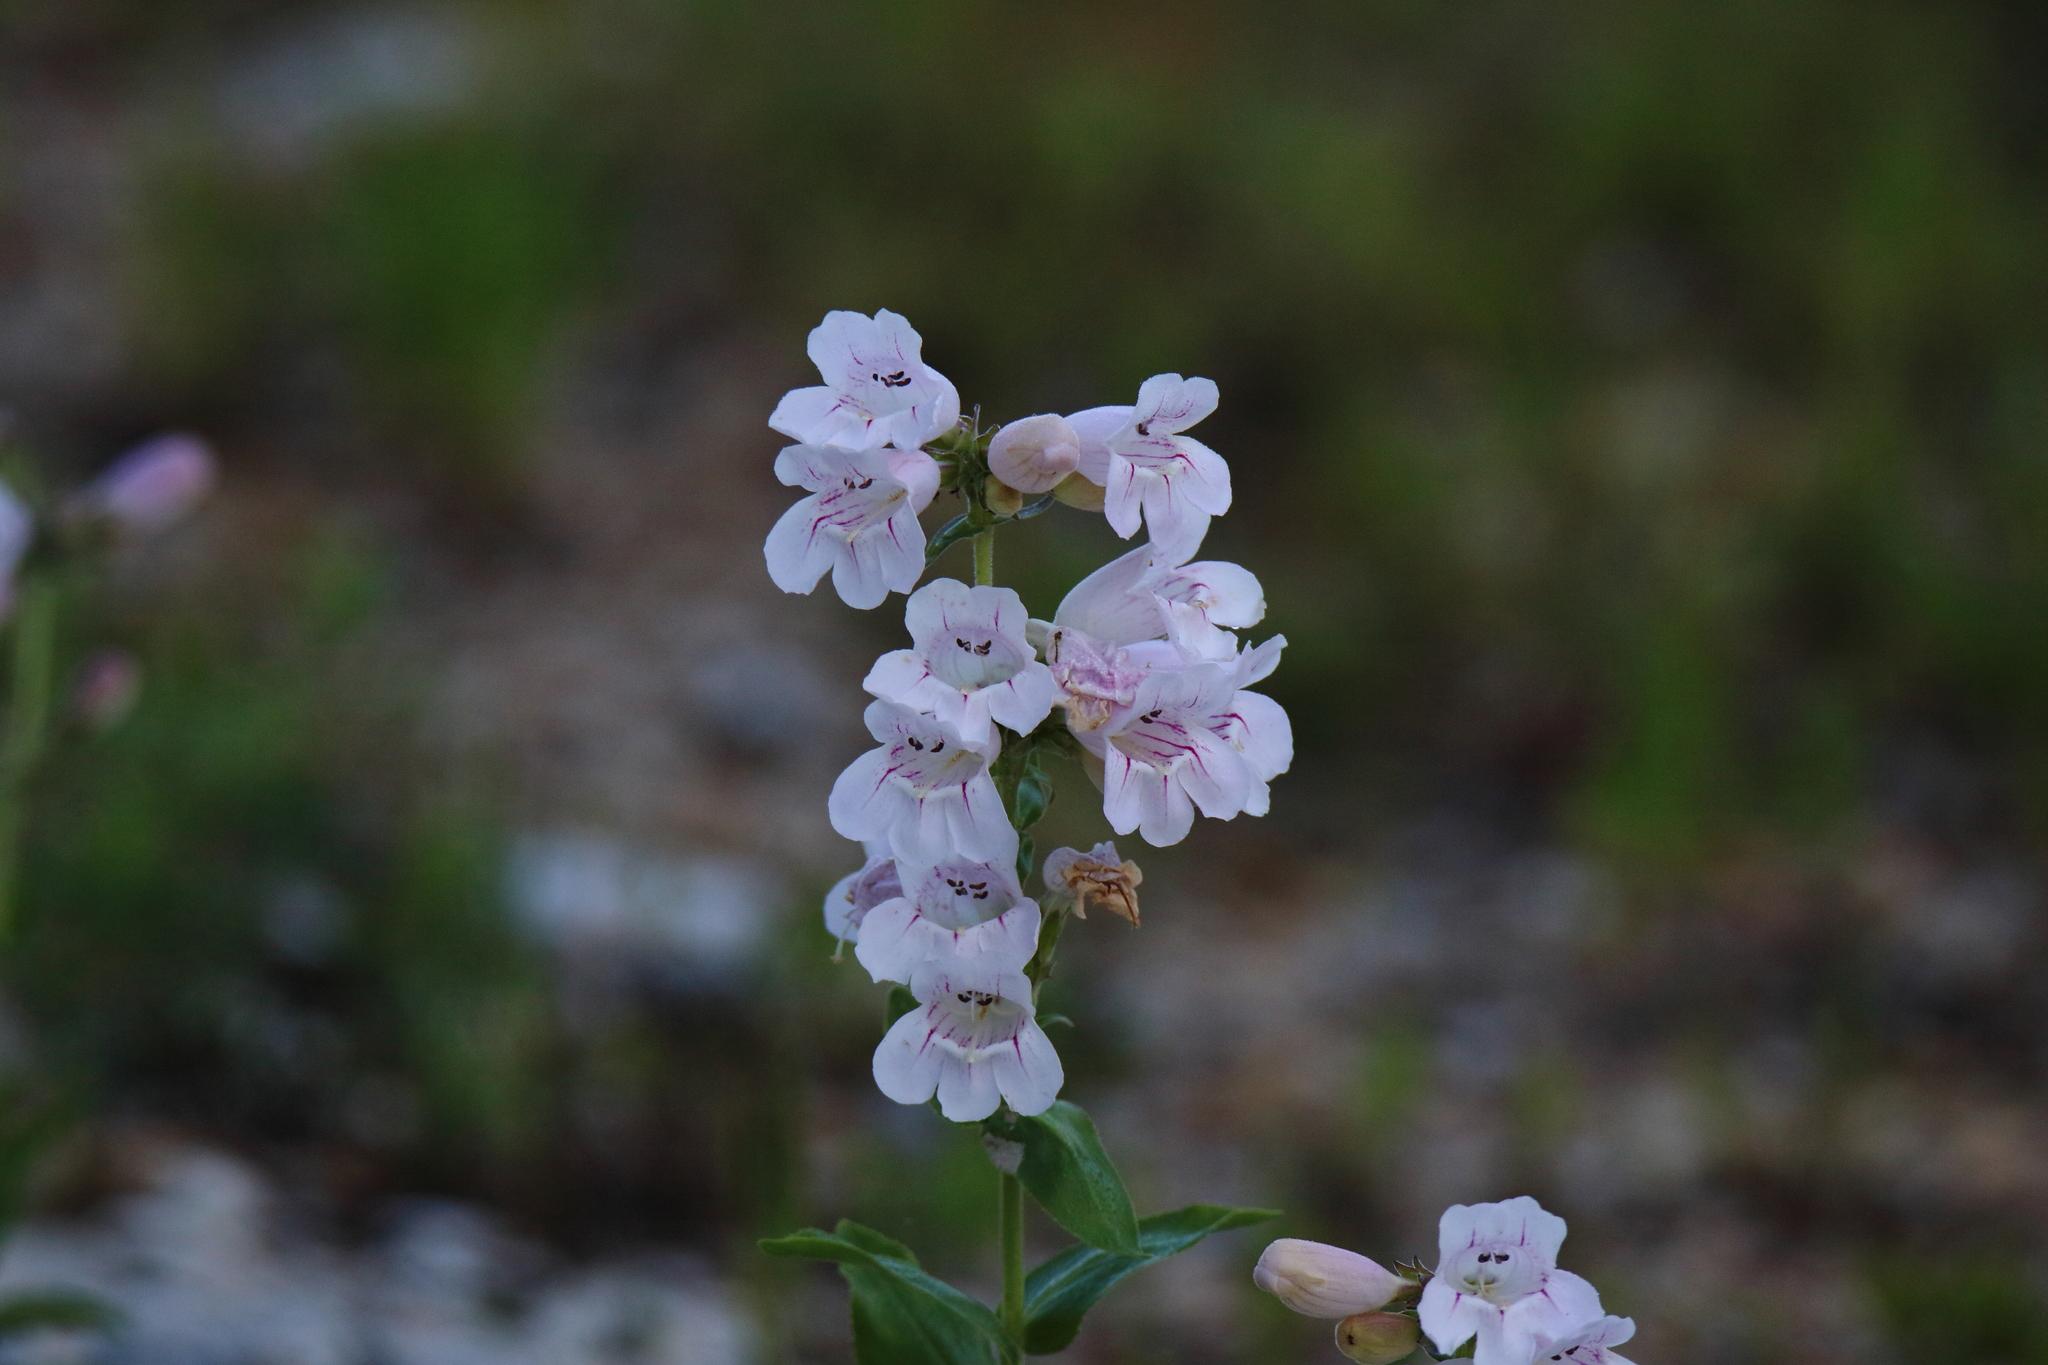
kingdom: Plantae
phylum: Tracheophyta
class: Magnoliopsida
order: Lamiales
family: Plantaginaceae
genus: Penstemon
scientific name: Penstemon cobaea
